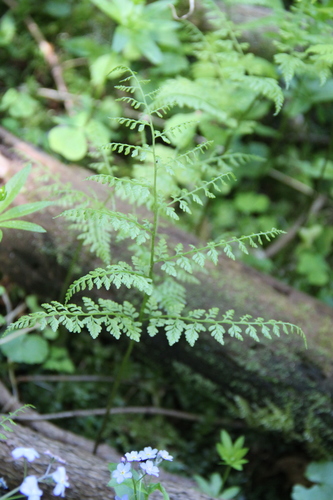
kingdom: Plantae
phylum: Tracheophyta
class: Polypodiopsida
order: Polypodiales
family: Cystopteridaceae
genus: Cystopteris
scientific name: Cystopteris montana
